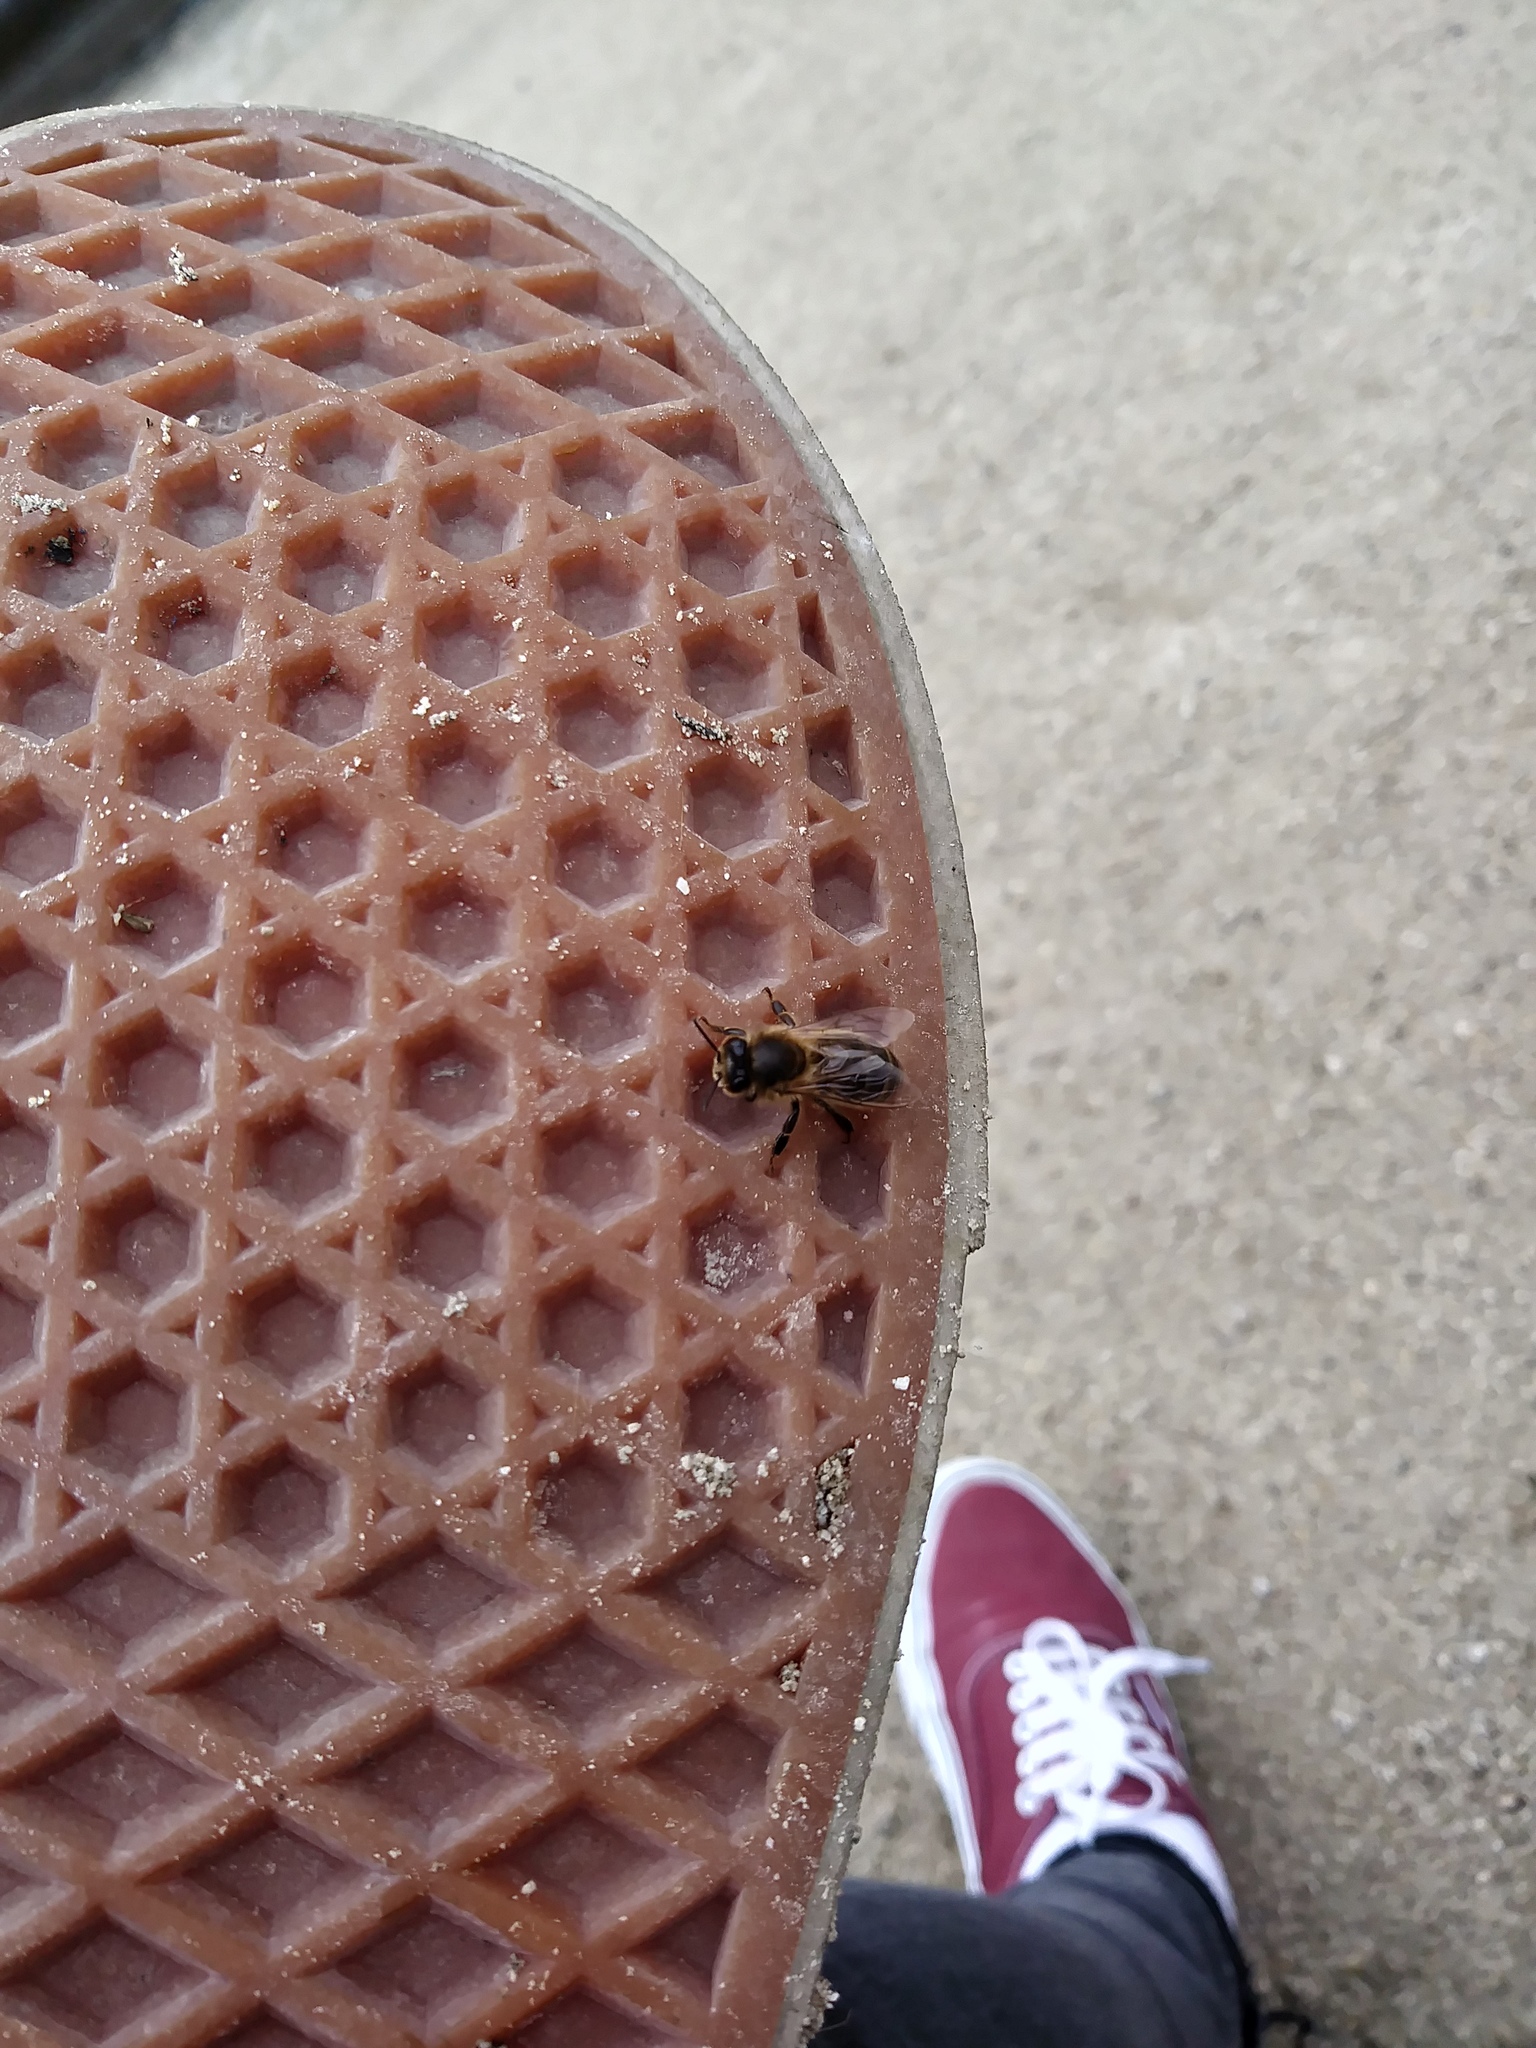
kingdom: Animalia
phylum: Arthropoda
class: Insecta
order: Hymenoptera
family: Apidae
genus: Apis
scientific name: Apis mellifera
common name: Honey bee
